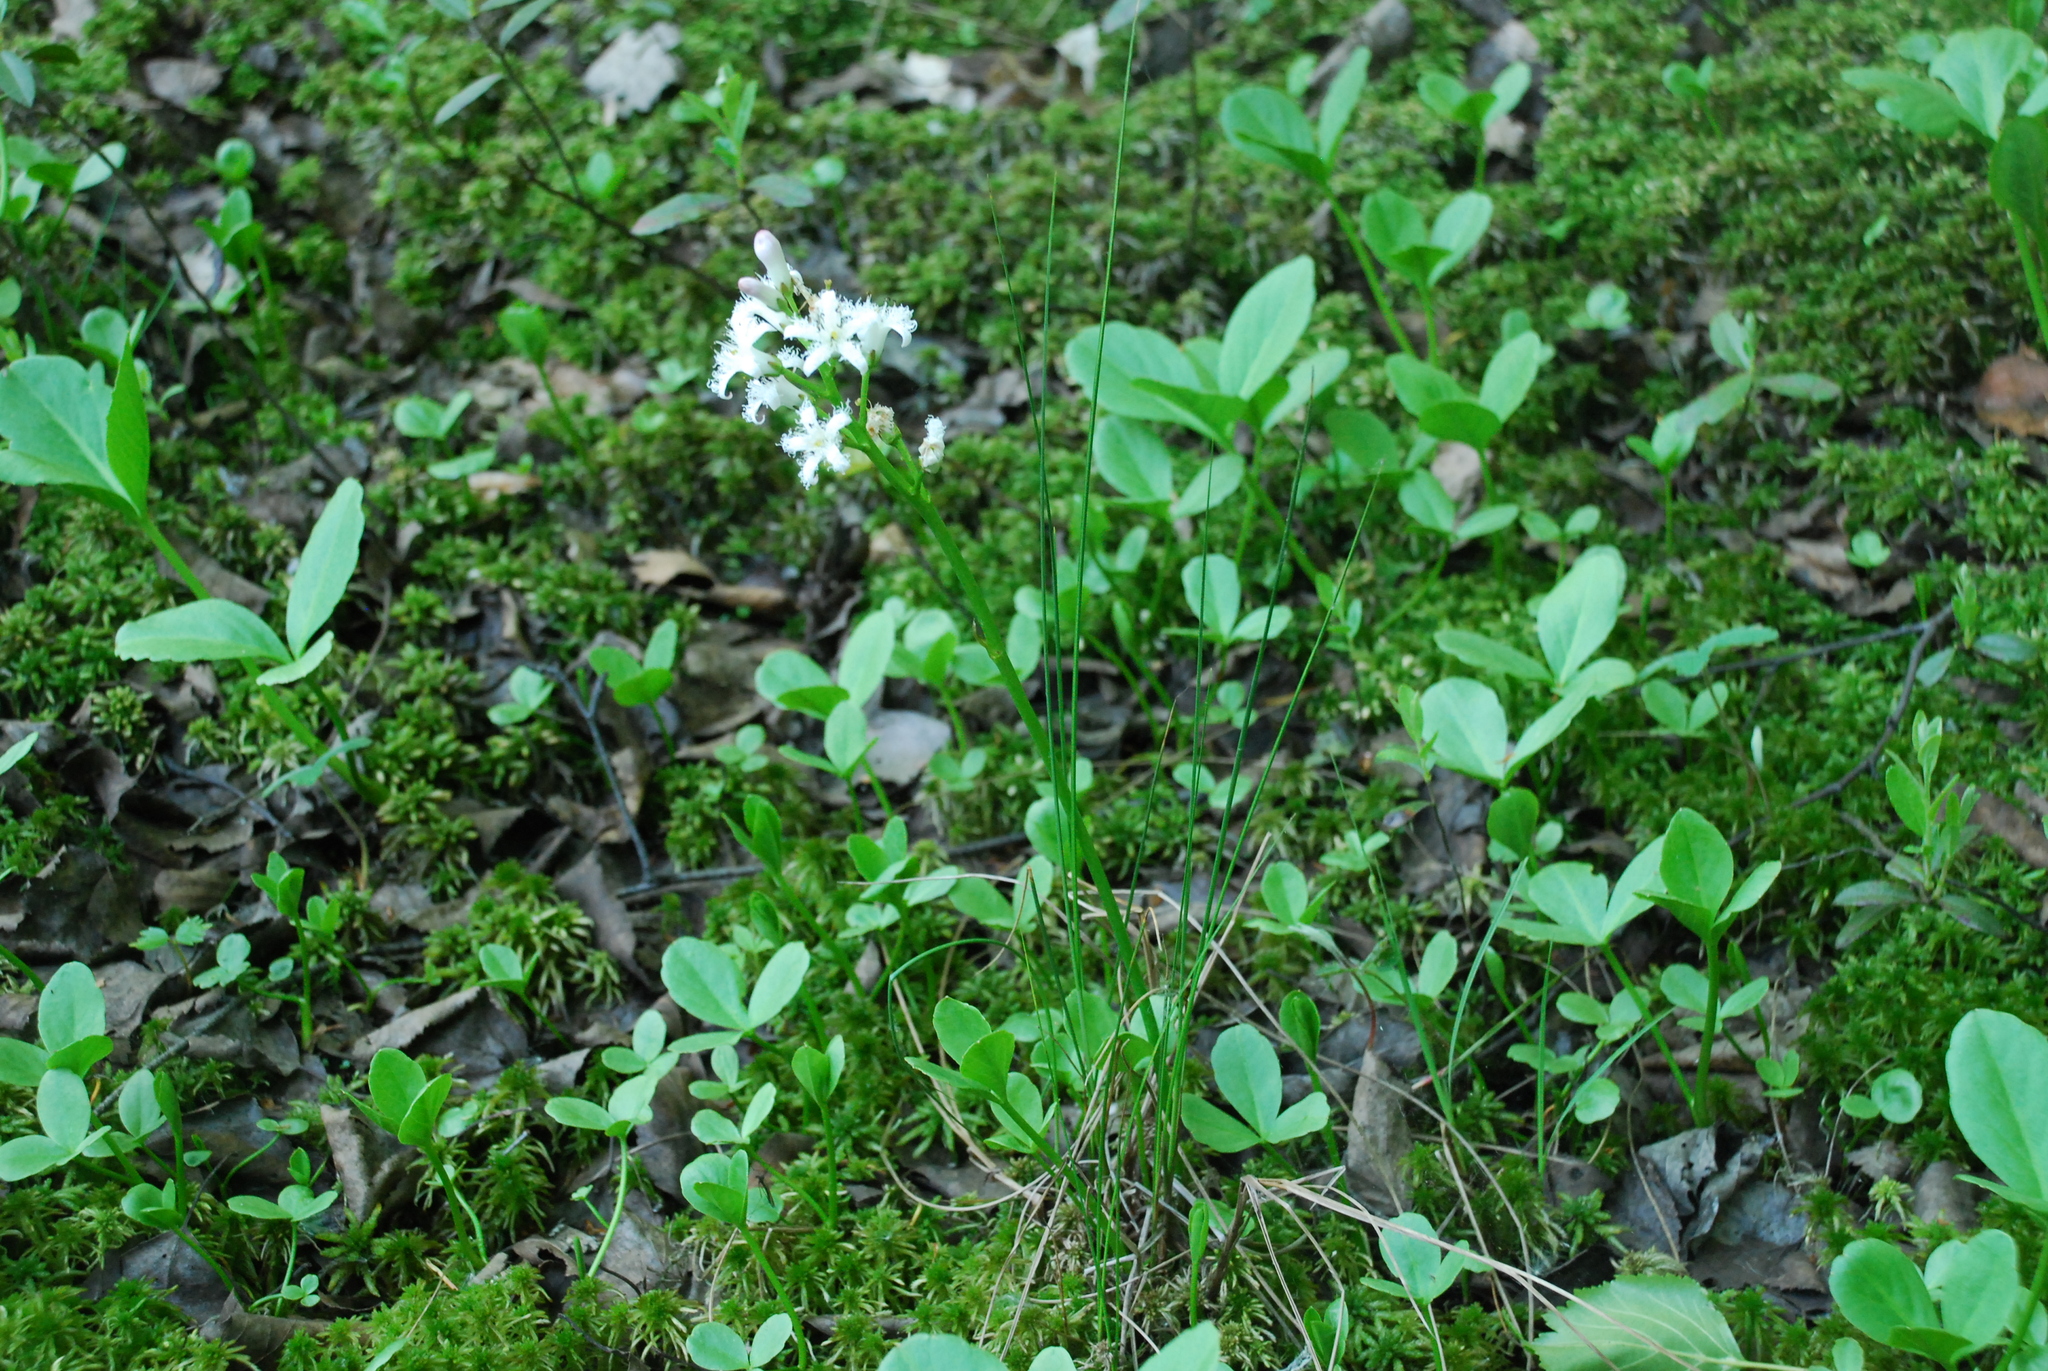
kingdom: Plantae
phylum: Tracheophyta
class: Magnoliopsida
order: Asterales
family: Menyanthaceae
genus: Menyanthes
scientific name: Menyanthes trifoliata
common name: Bogbean
